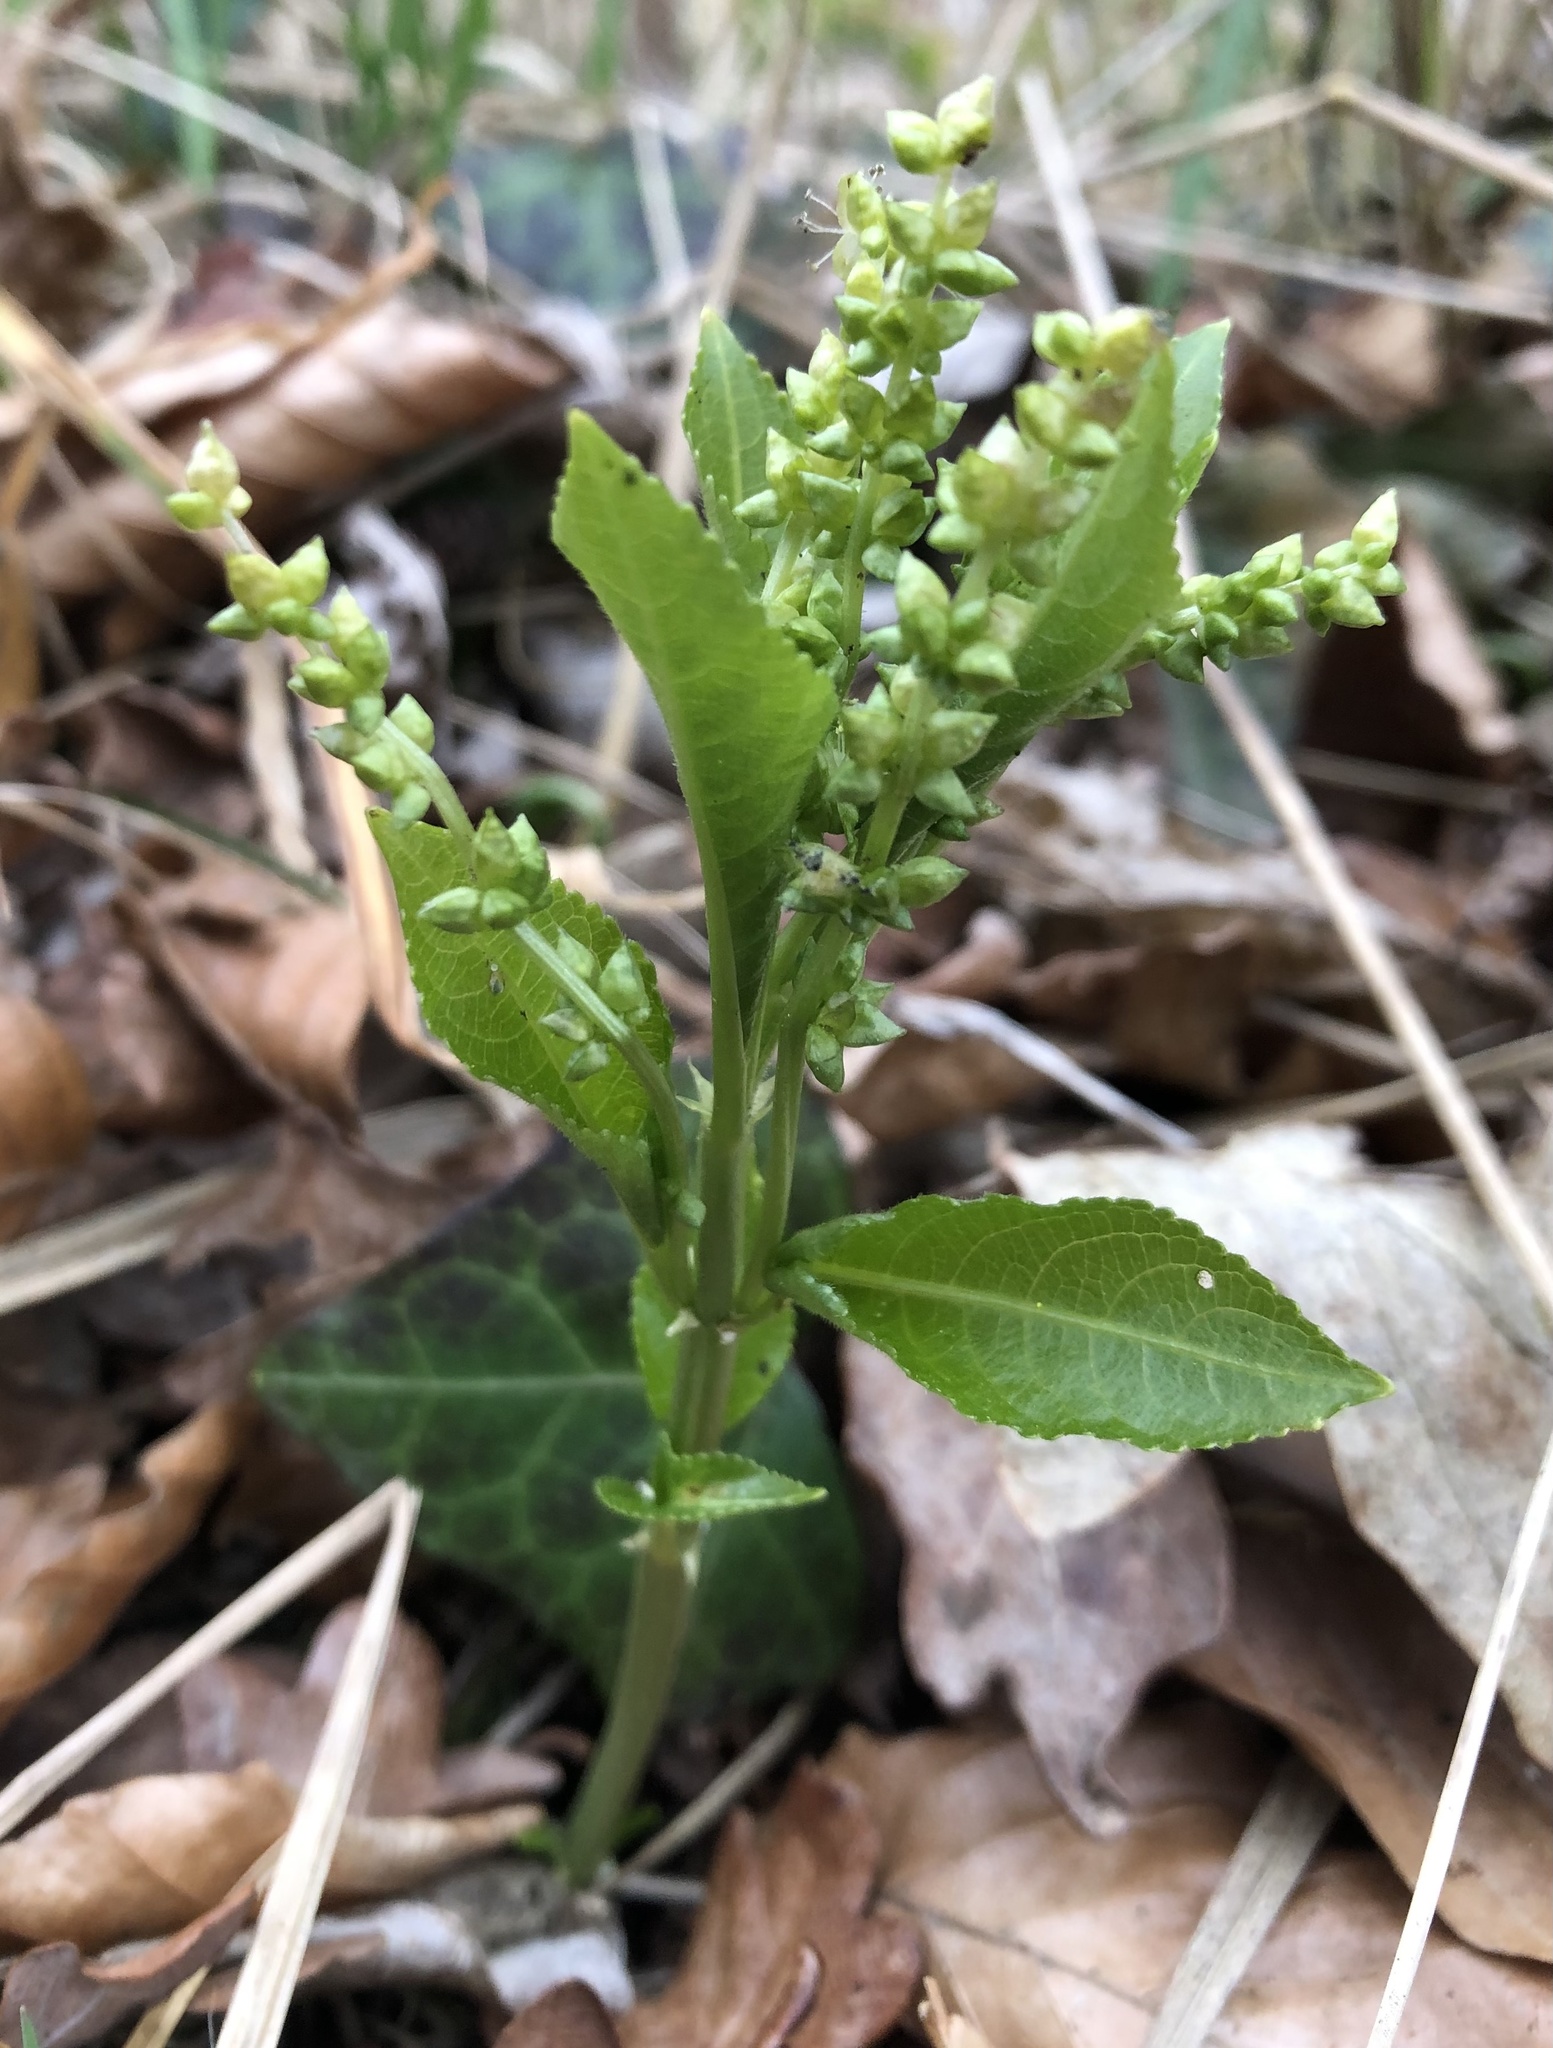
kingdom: Plantae
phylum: Tracheophyta
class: Magnoliopsida
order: Malpighiales
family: Euphorbiaceae
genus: Mercurialis
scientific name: Mercurialis perennis
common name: Dog mercury
